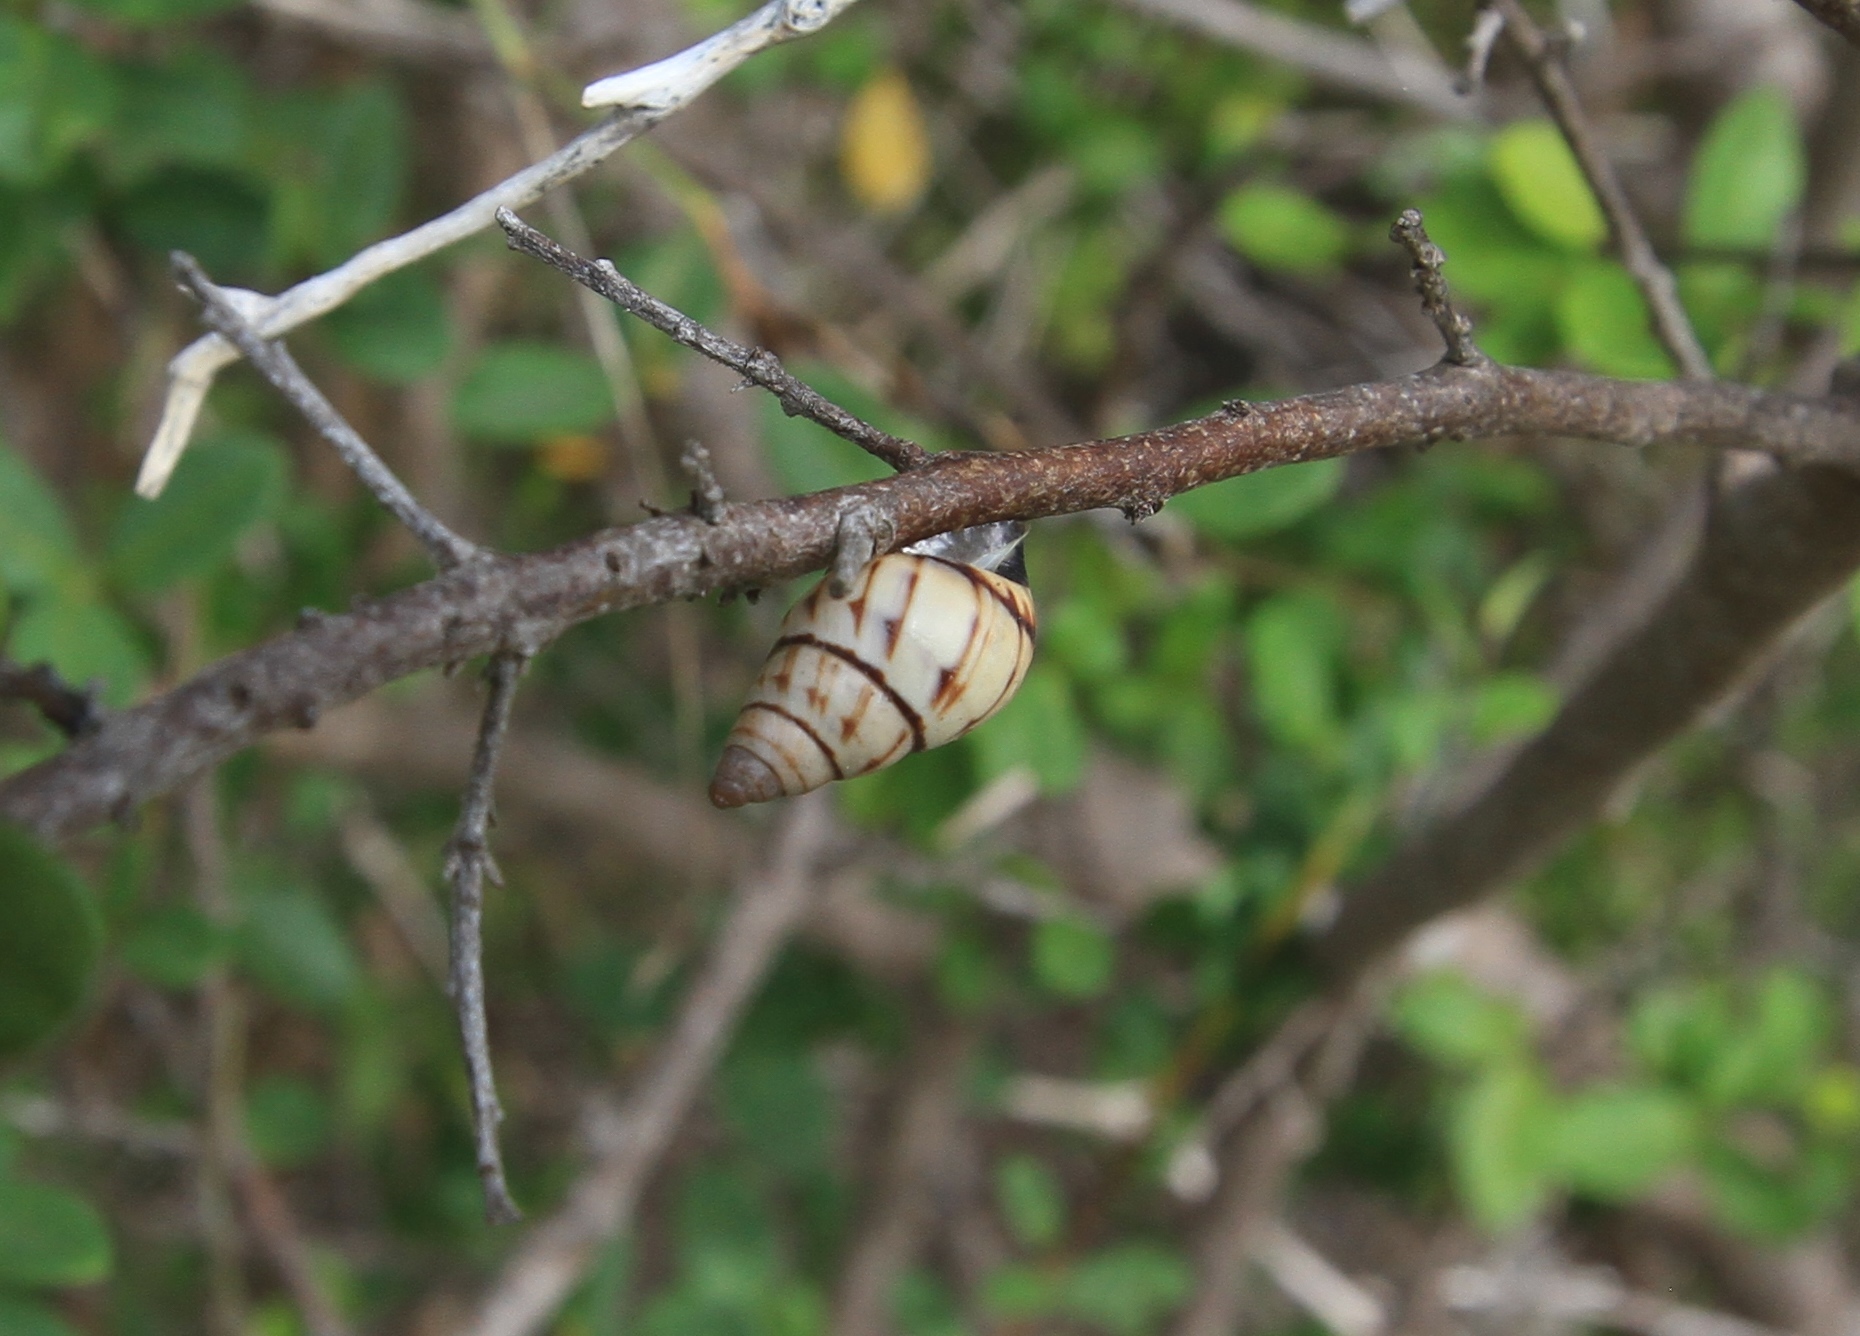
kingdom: Animalia
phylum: Mollusca
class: Gastropoda
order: Stylommatophora
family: Bulimulidae
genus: Drymaeus
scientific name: Drymaeus
